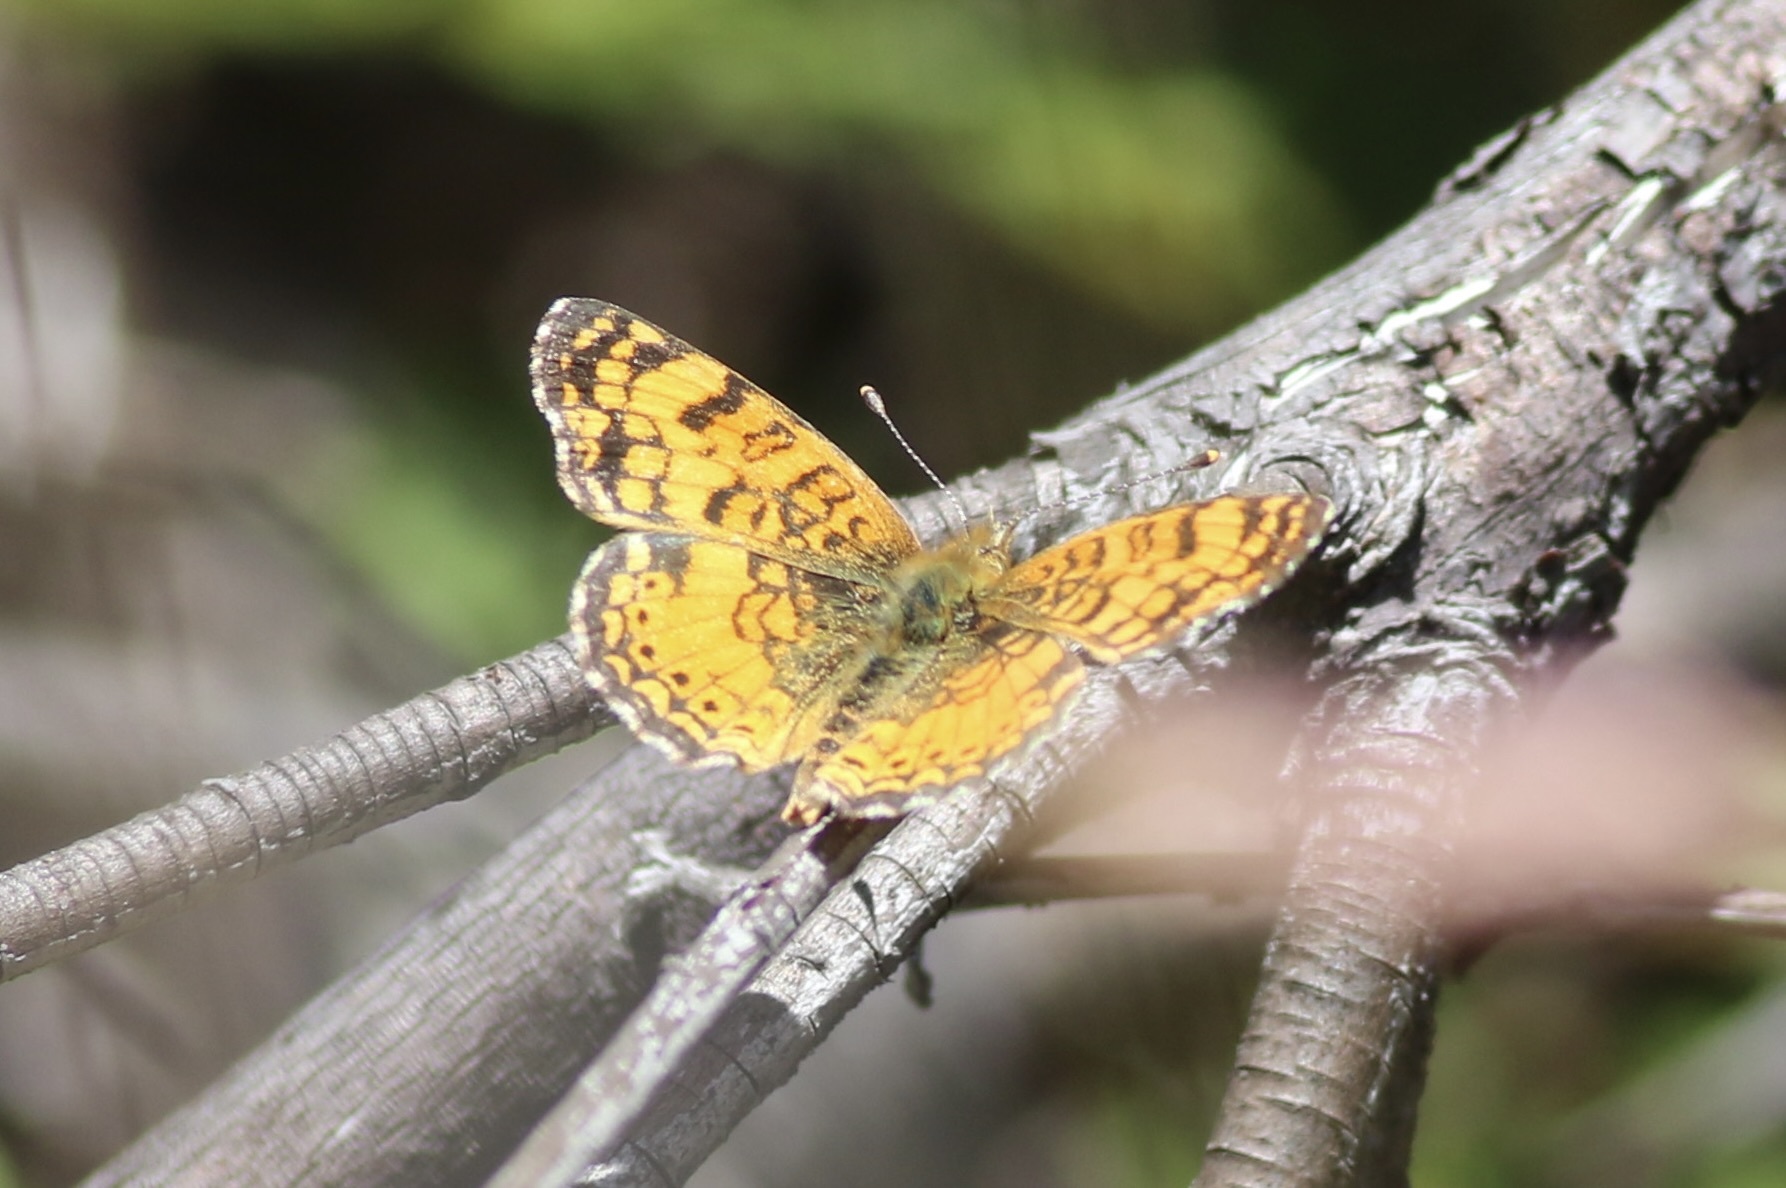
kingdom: Animalia
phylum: Arthropoda
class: Insecta
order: Lepidoptera
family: Nymphalidae
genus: Eresia
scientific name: Eresia aveyrona
